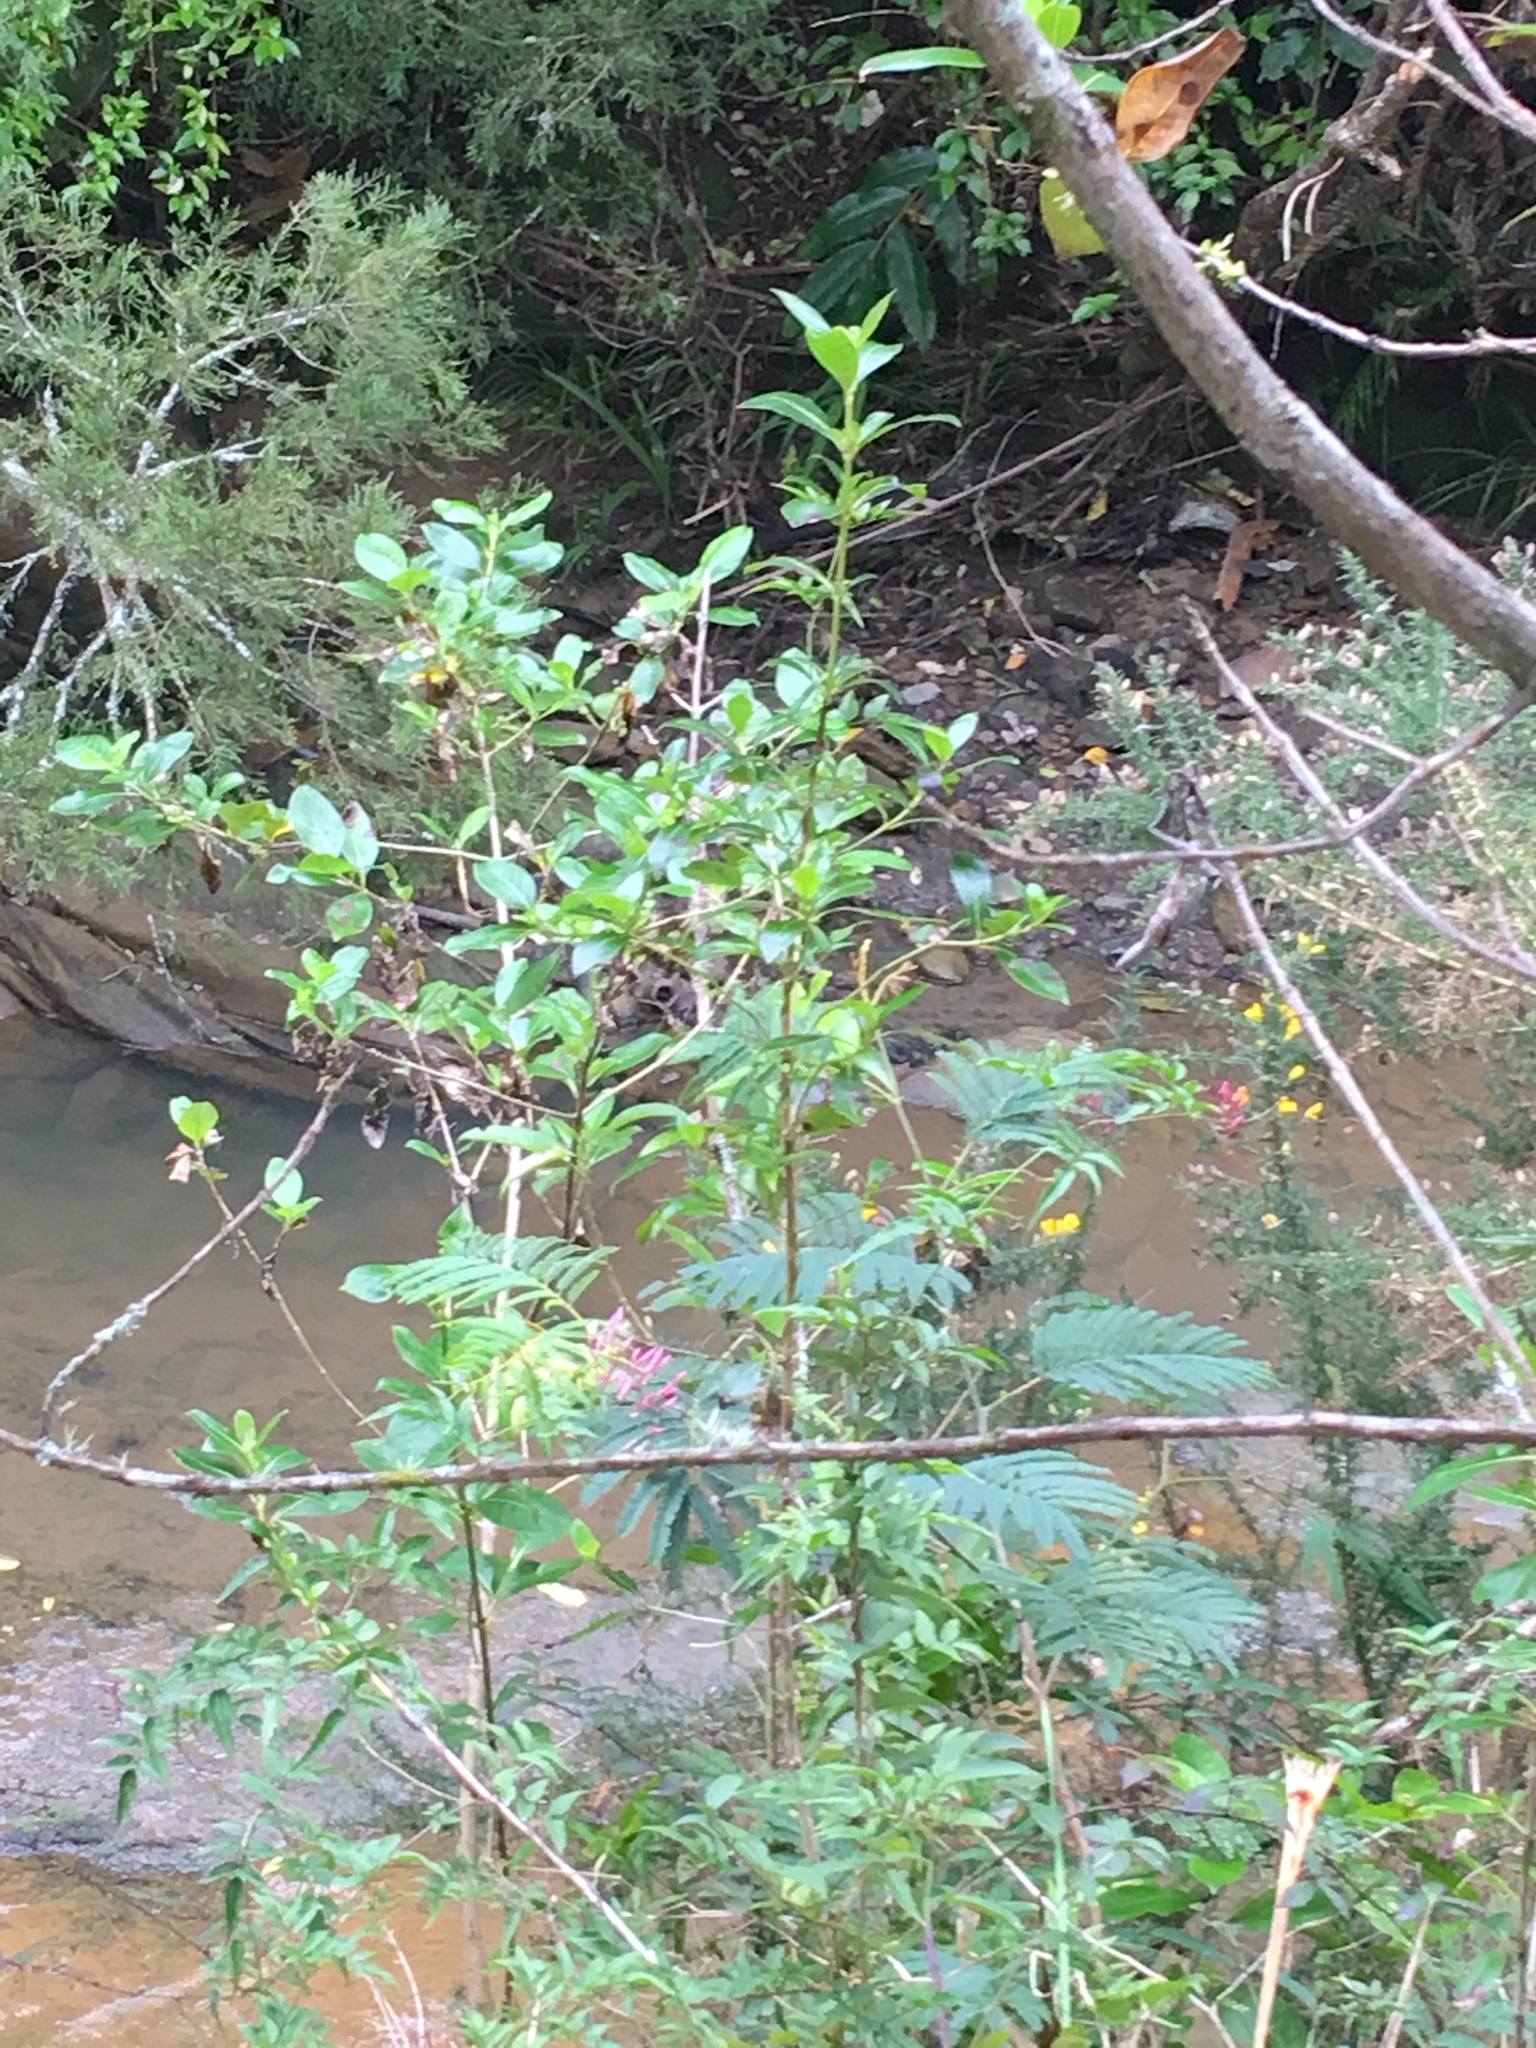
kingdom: Plantae
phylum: Tracheophyta
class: Magnoliopsida
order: Fabales
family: Fabaceae
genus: Ulex
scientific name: Ulex europaeus
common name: Common gorse
